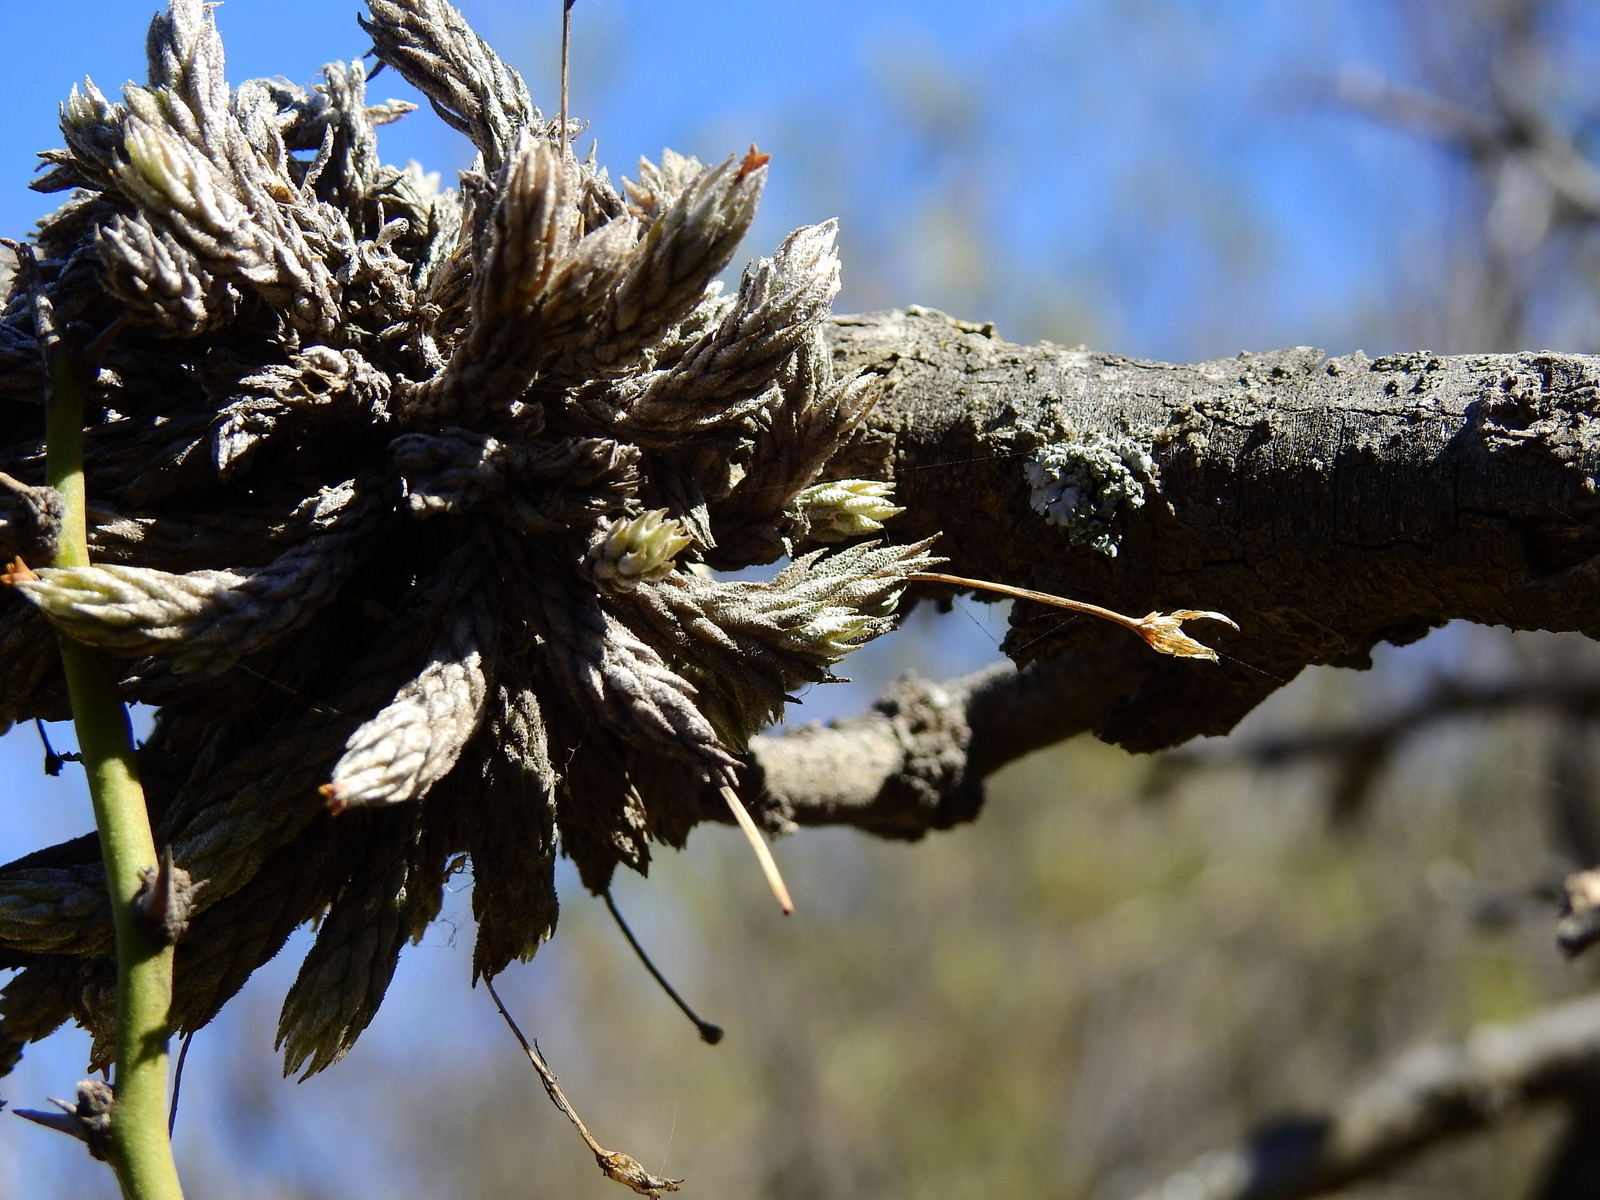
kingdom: Plantae
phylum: Tracheophyta
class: Liliopsida
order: Poales
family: Bromeliaceae
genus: Tillandsia
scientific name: Tillandsia pedicellata
